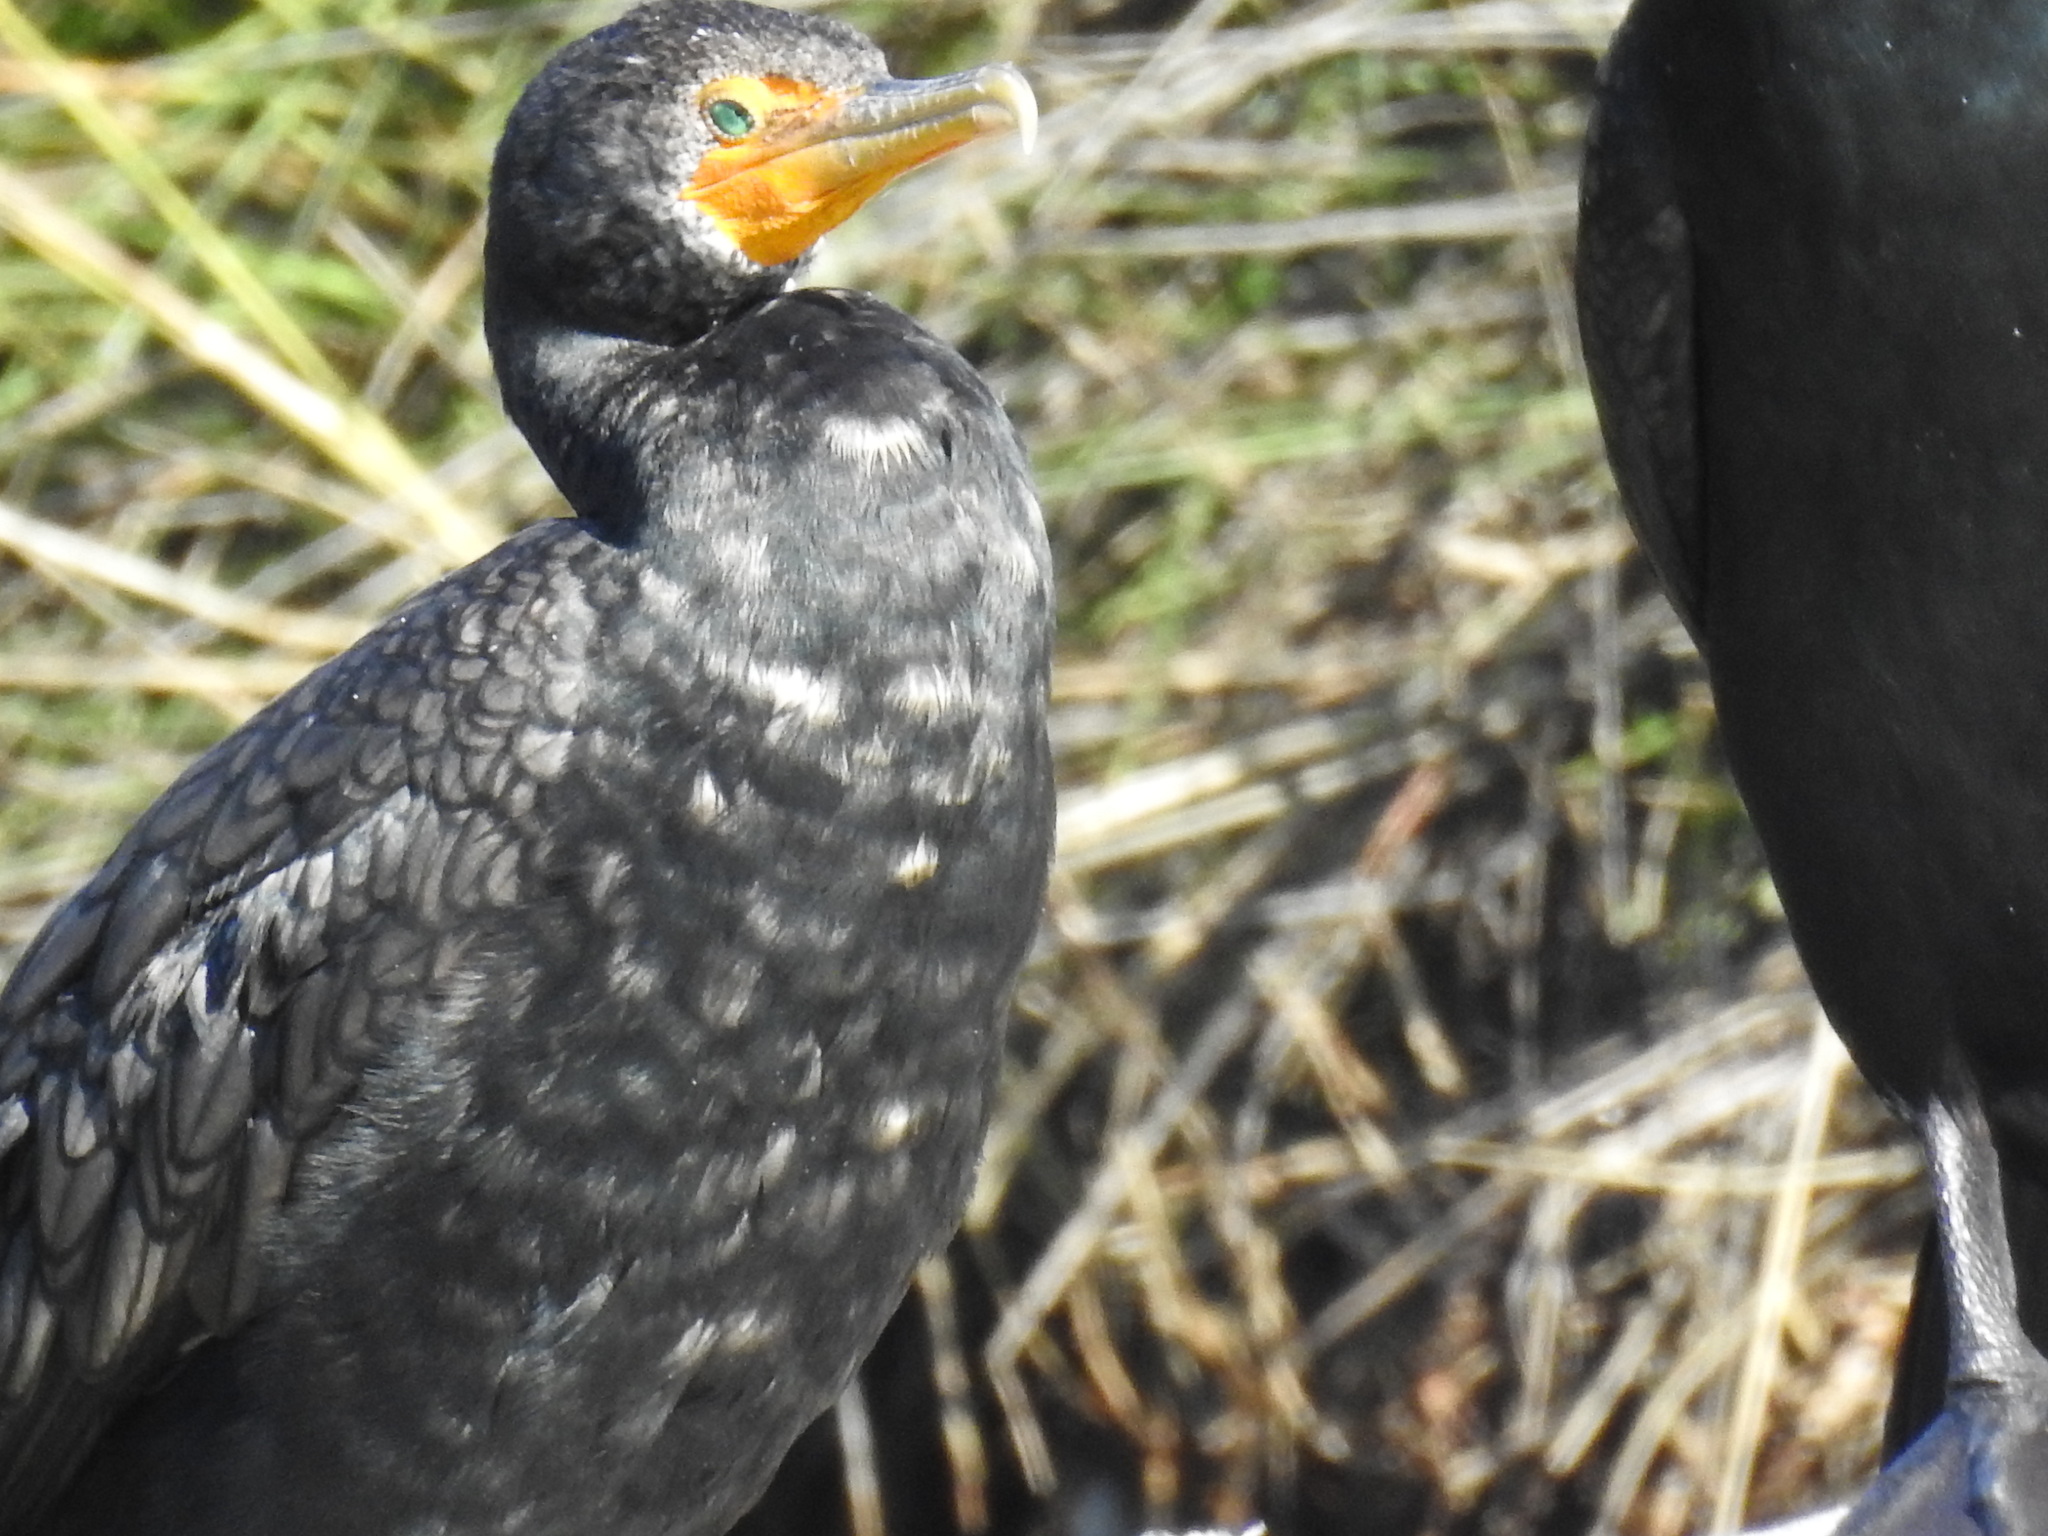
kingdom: Animalia
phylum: Chordata
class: Aves
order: Suliformes
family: Phalacrocoracidae
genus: Phalacrocorax
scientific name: Phalacrocorax auritus
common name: Double-crested cormorant
